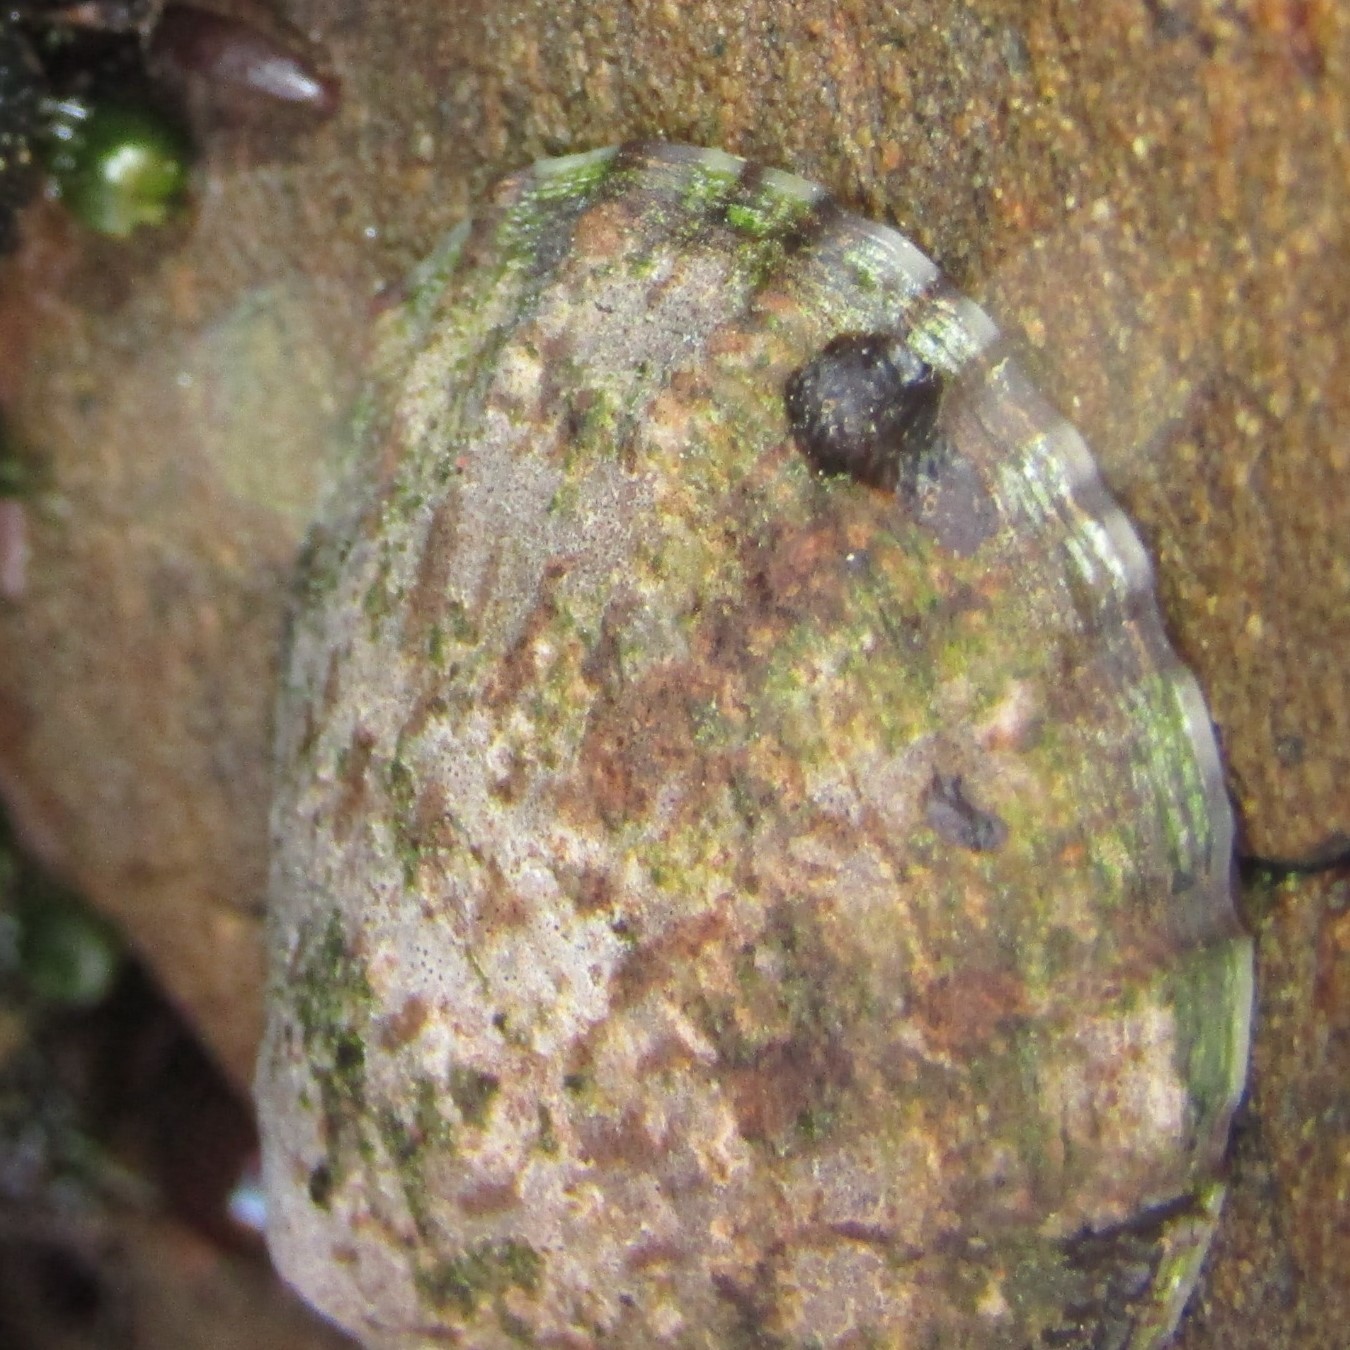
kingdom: Animalia
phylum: Mollusca
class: Gastropoda
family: Nacellidae
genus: Cellana
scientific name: Cellana radians
